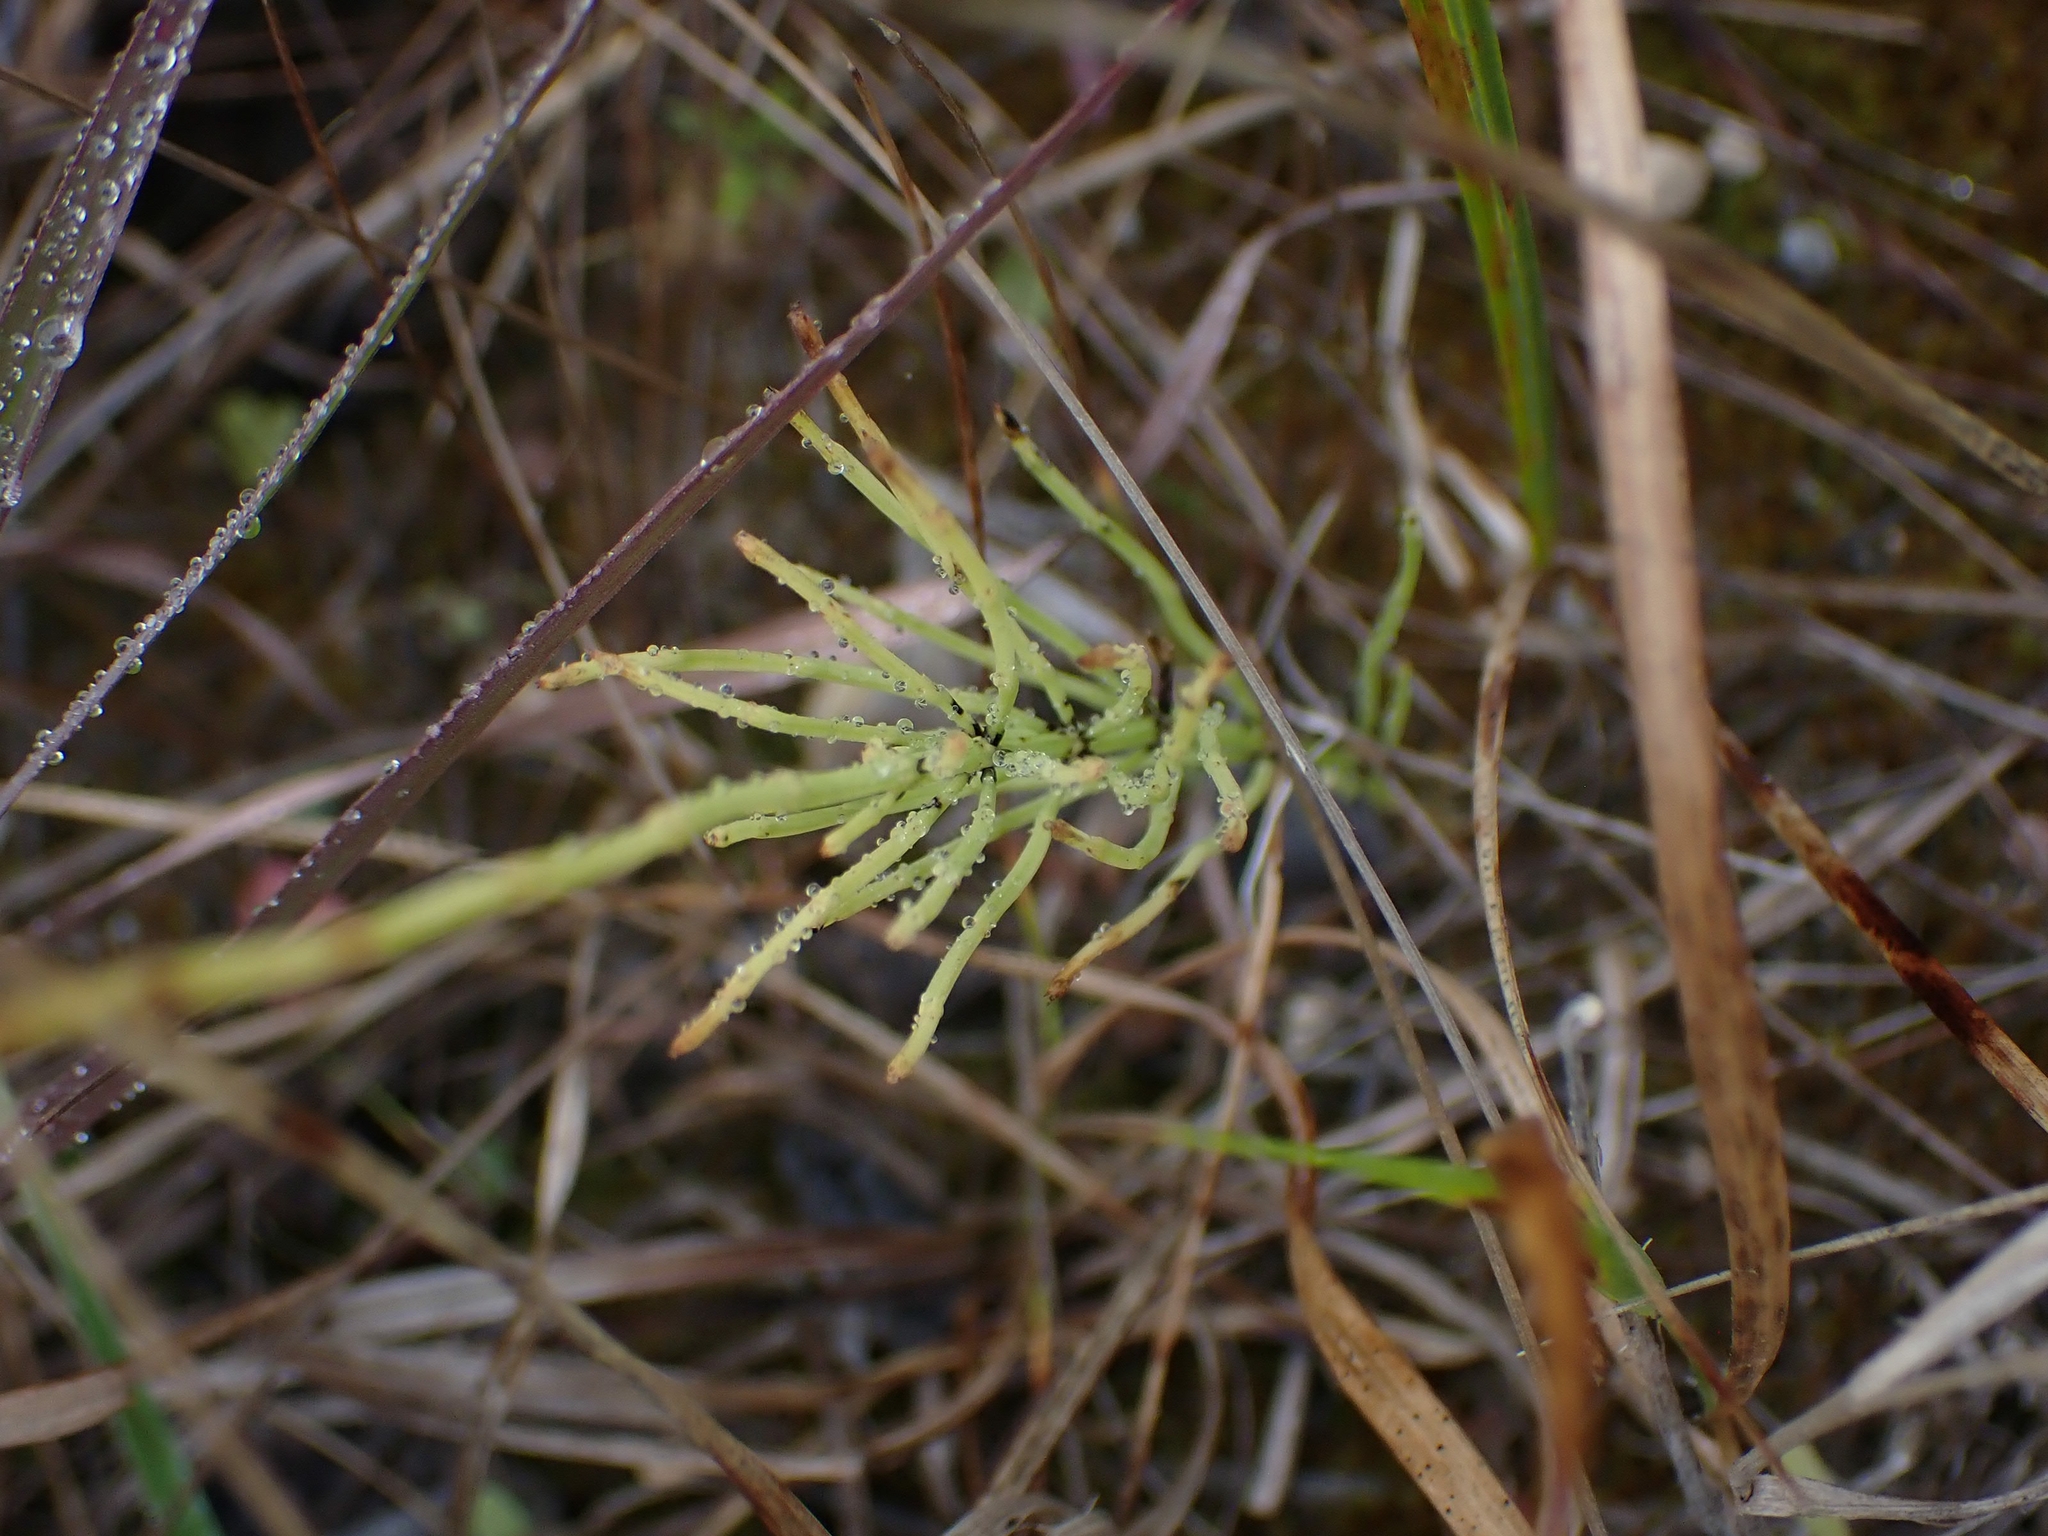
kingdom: Plantae
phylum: Tracheophyta
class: Polypodiopsida
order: Equisetales
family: Equisetaceae
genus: Equisetum
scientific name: Equisetum arvense
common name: Field horsetail
